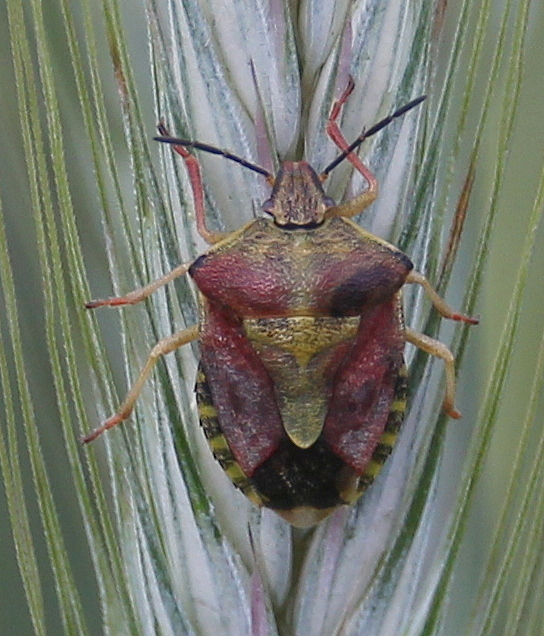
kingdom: Animalia
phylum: Arthropoda
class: Insecta
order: Hemiptera
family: Pentatomidae
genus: Carpocoris
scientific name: Carpocoris purpureipennis
